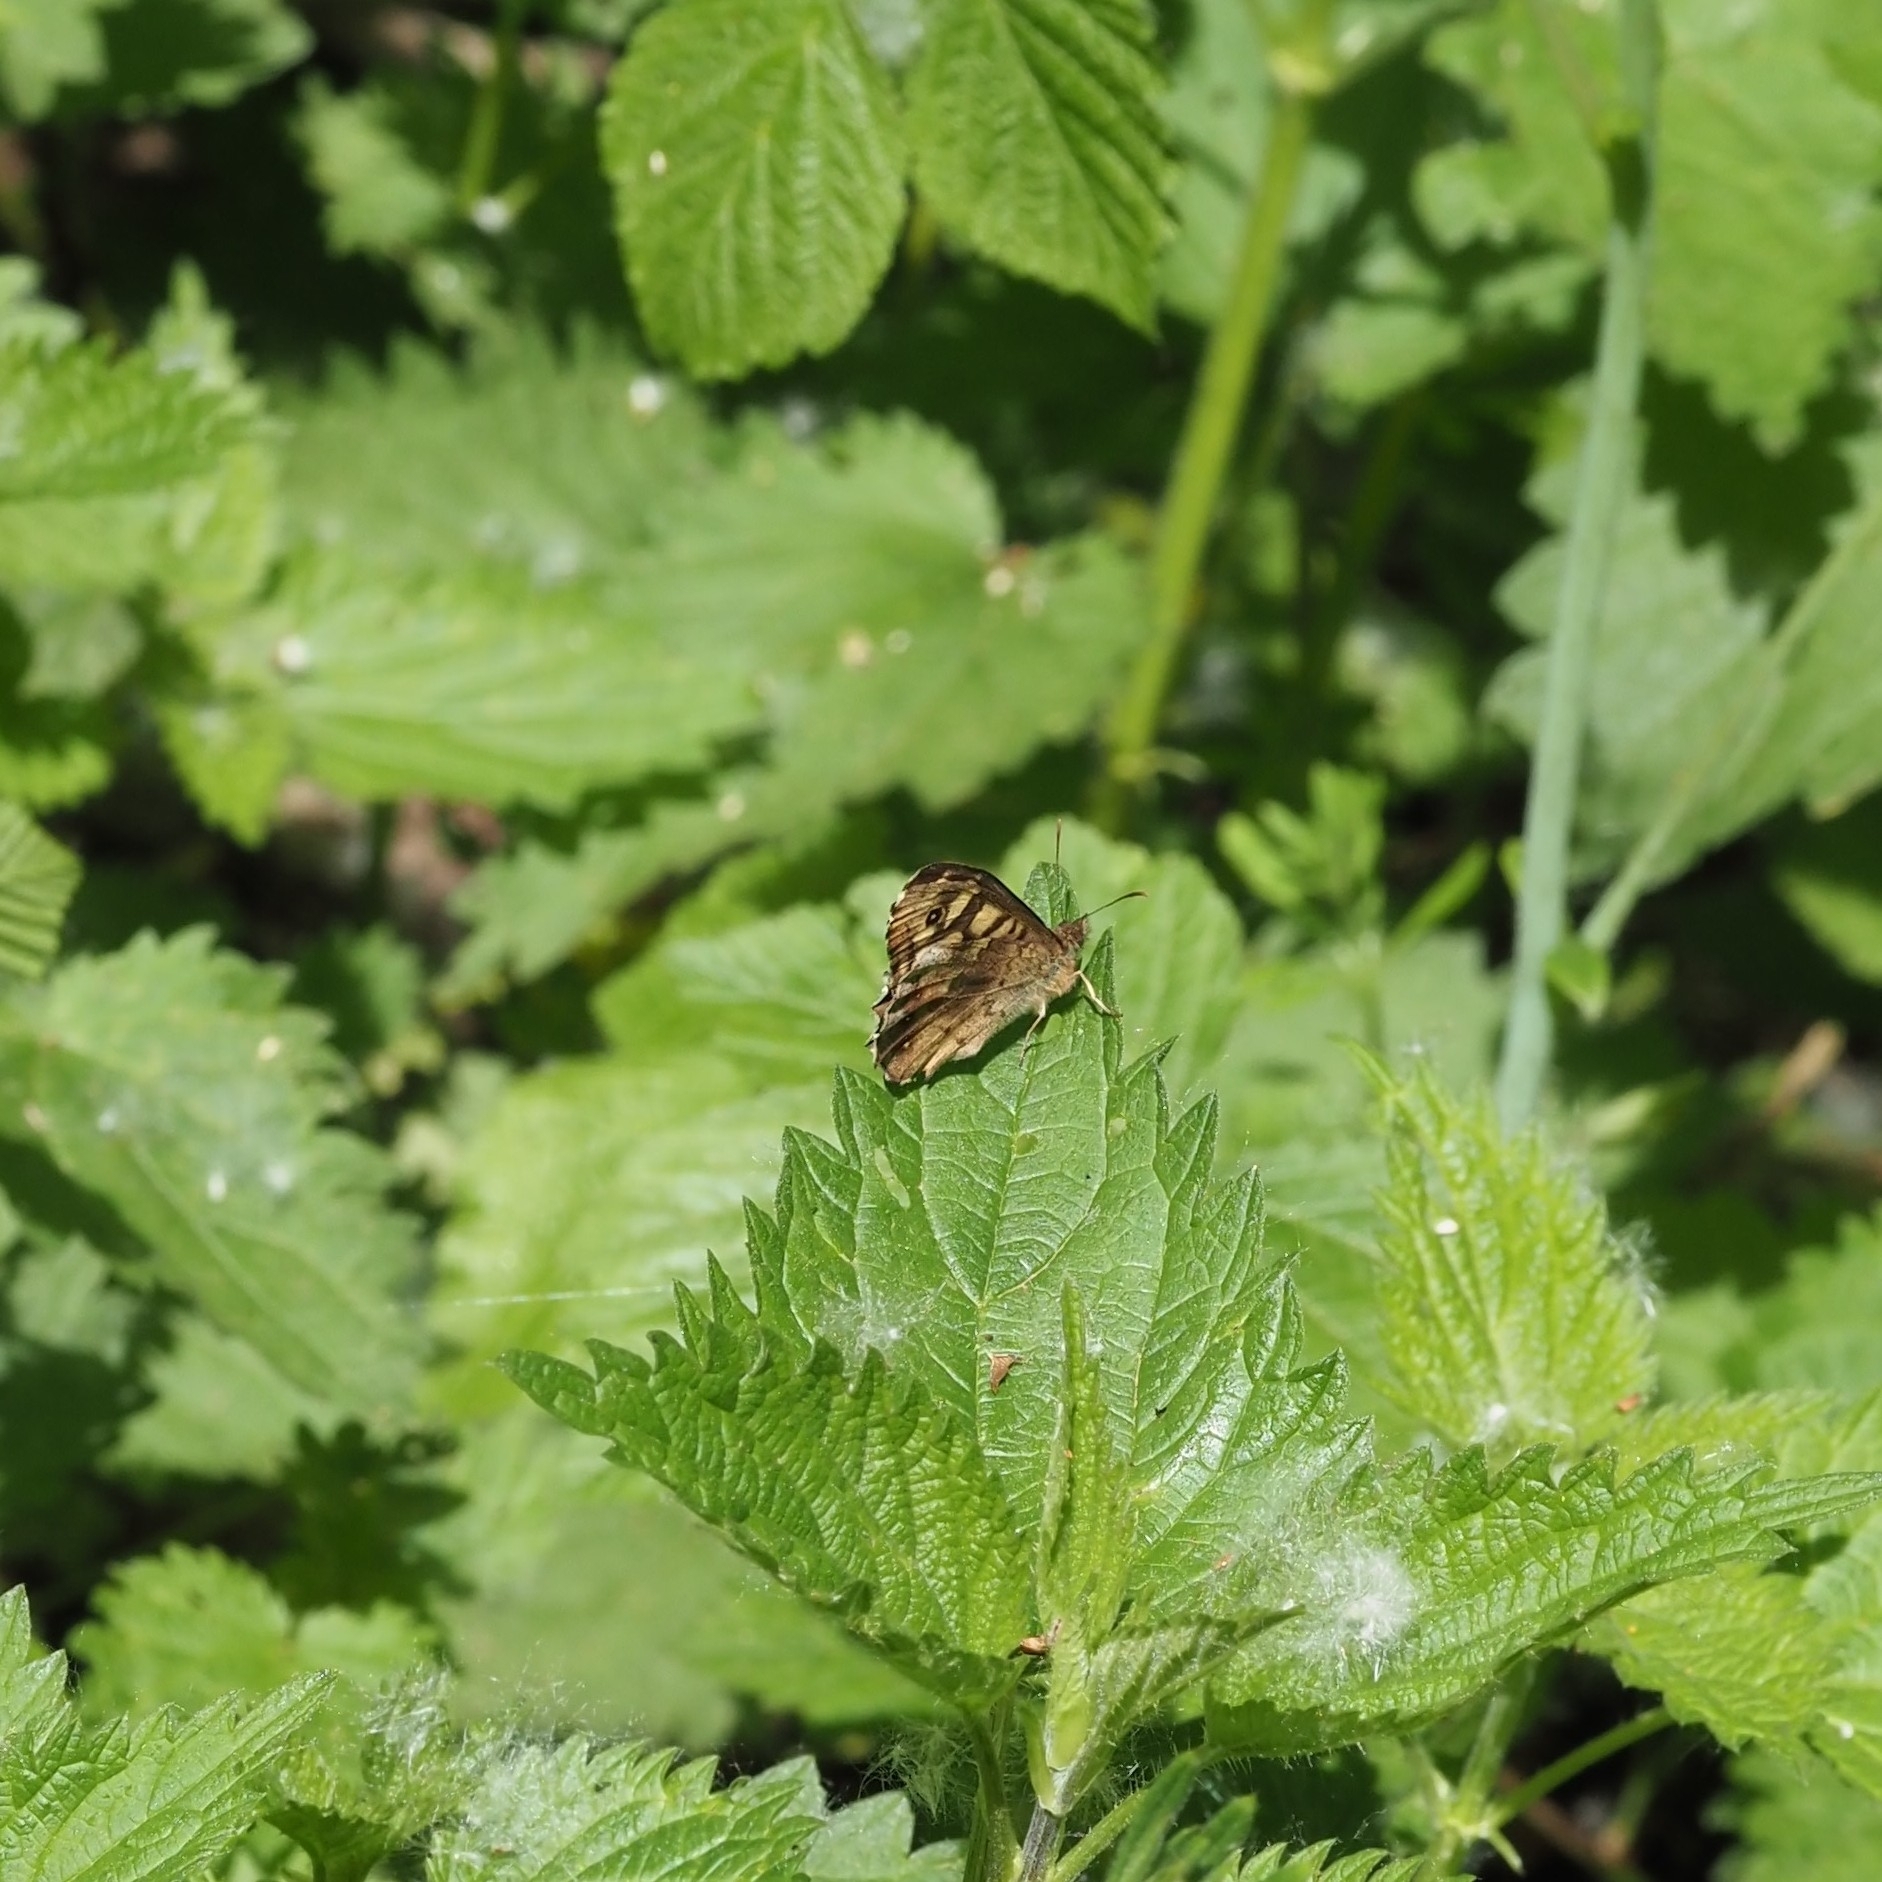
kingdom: Animalia
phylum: Arthropoda
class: Insecta
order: Lepidoptera
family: Nymphalidae
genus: Pararge
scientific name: Pararge aegeria
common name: Speckled wood
